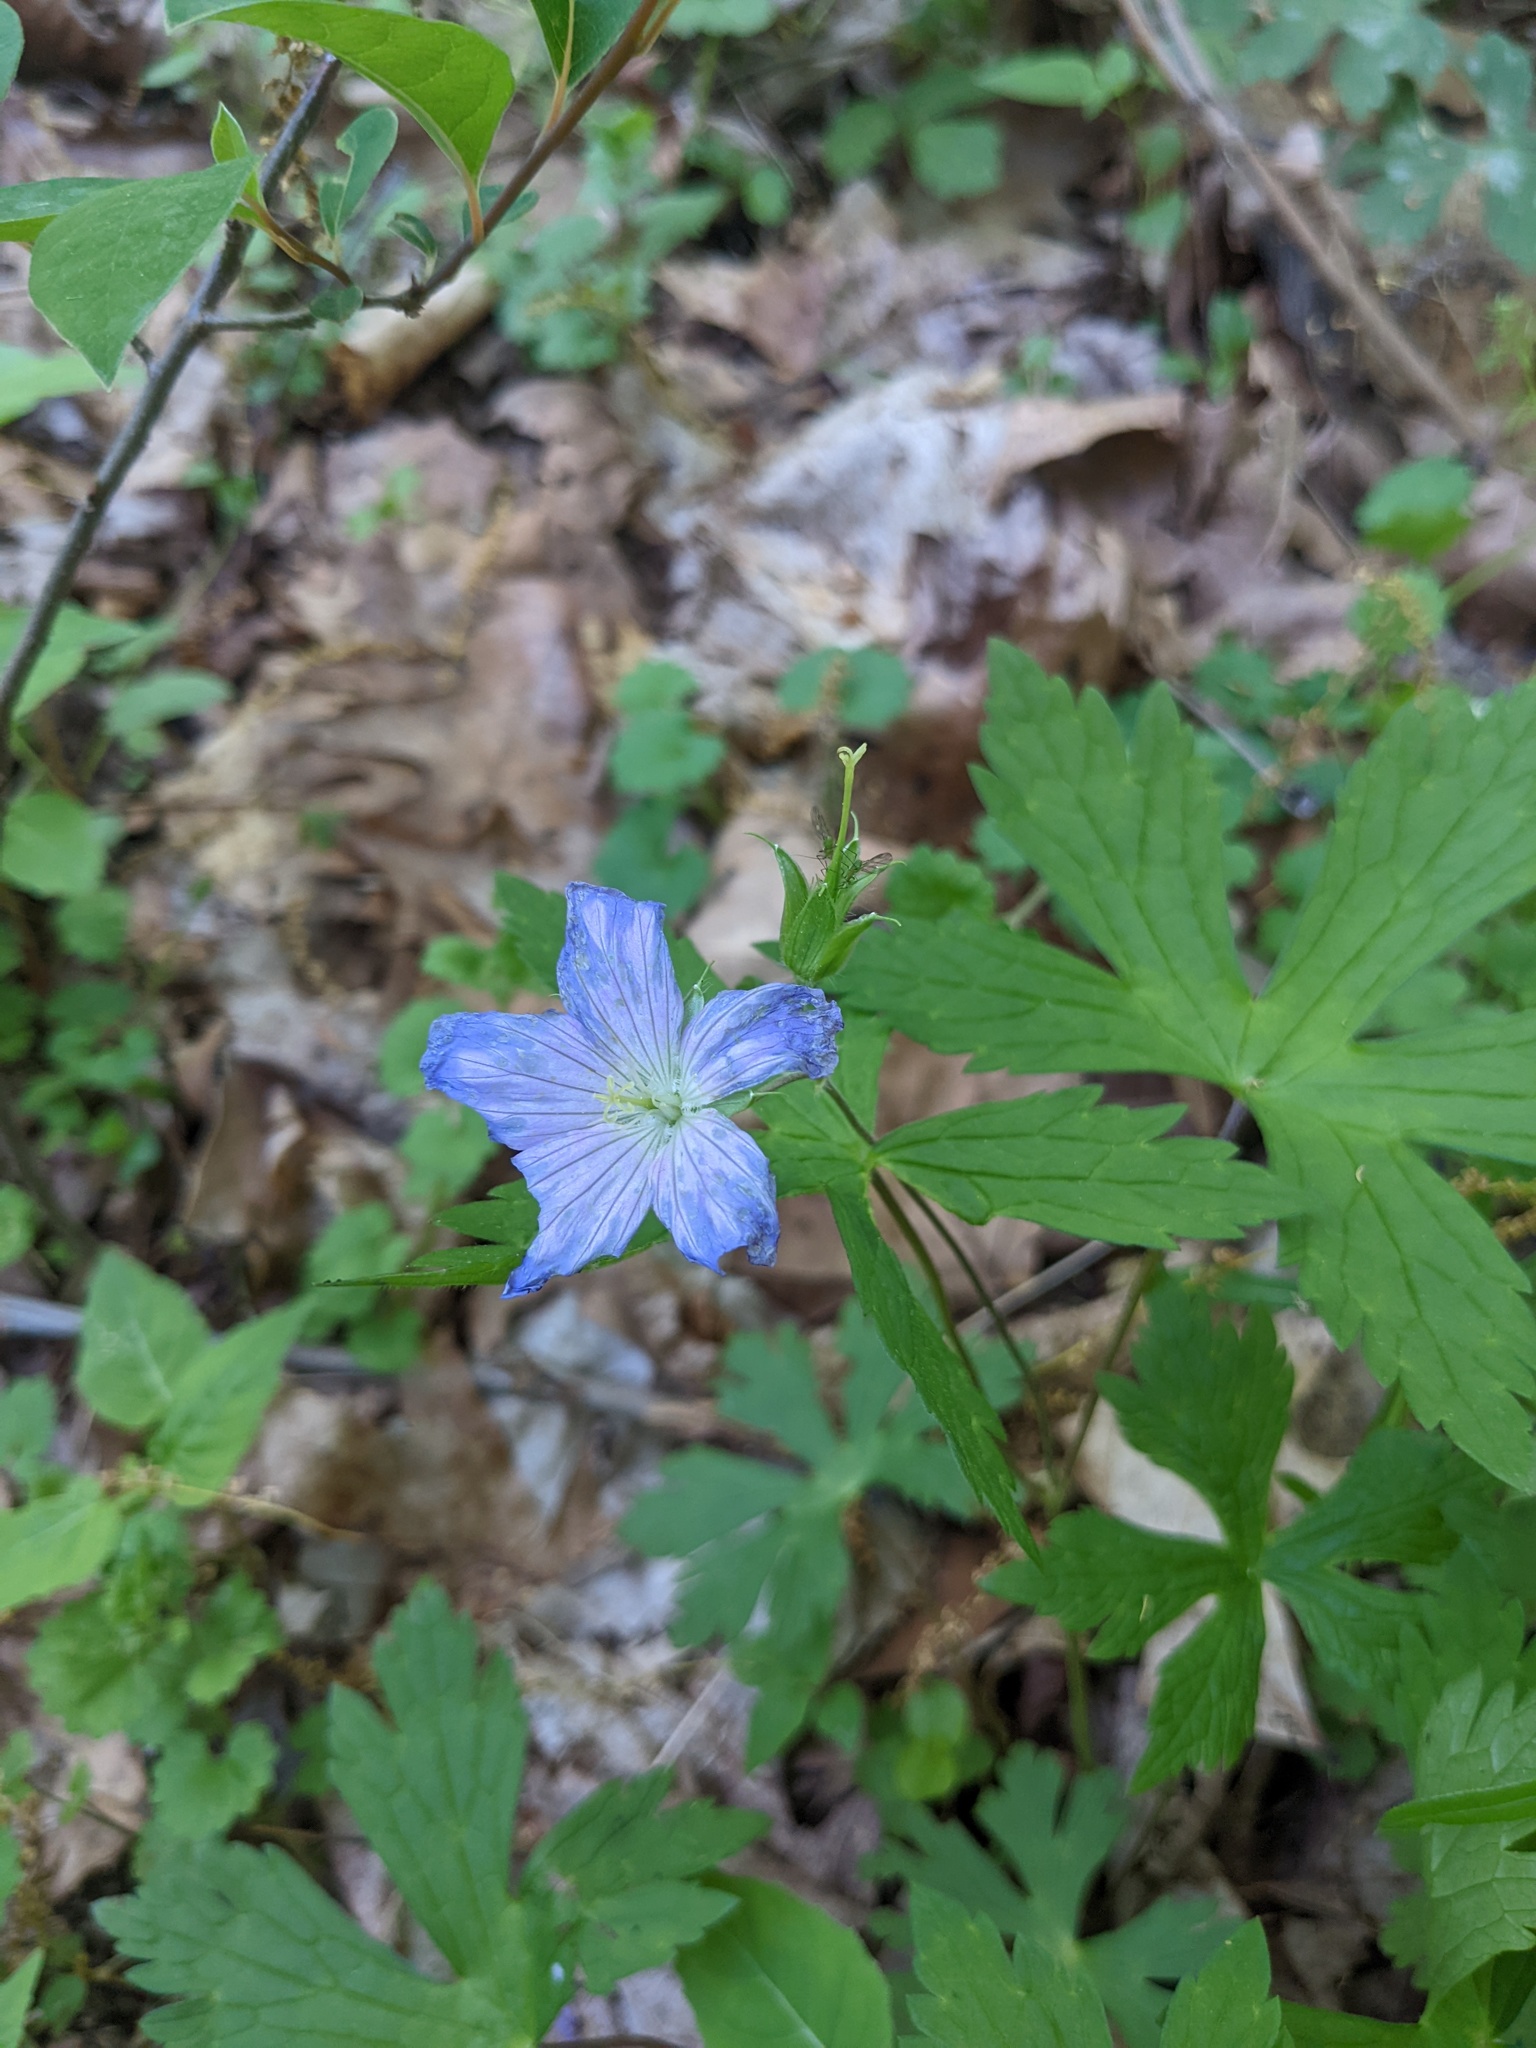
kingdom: Plantae
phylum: Tracheophyta
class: Magnoliopsida
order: Geraniales
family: Geraniaceae
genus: Geranium
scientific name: Geranium maculatum
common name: Spotted geranium
